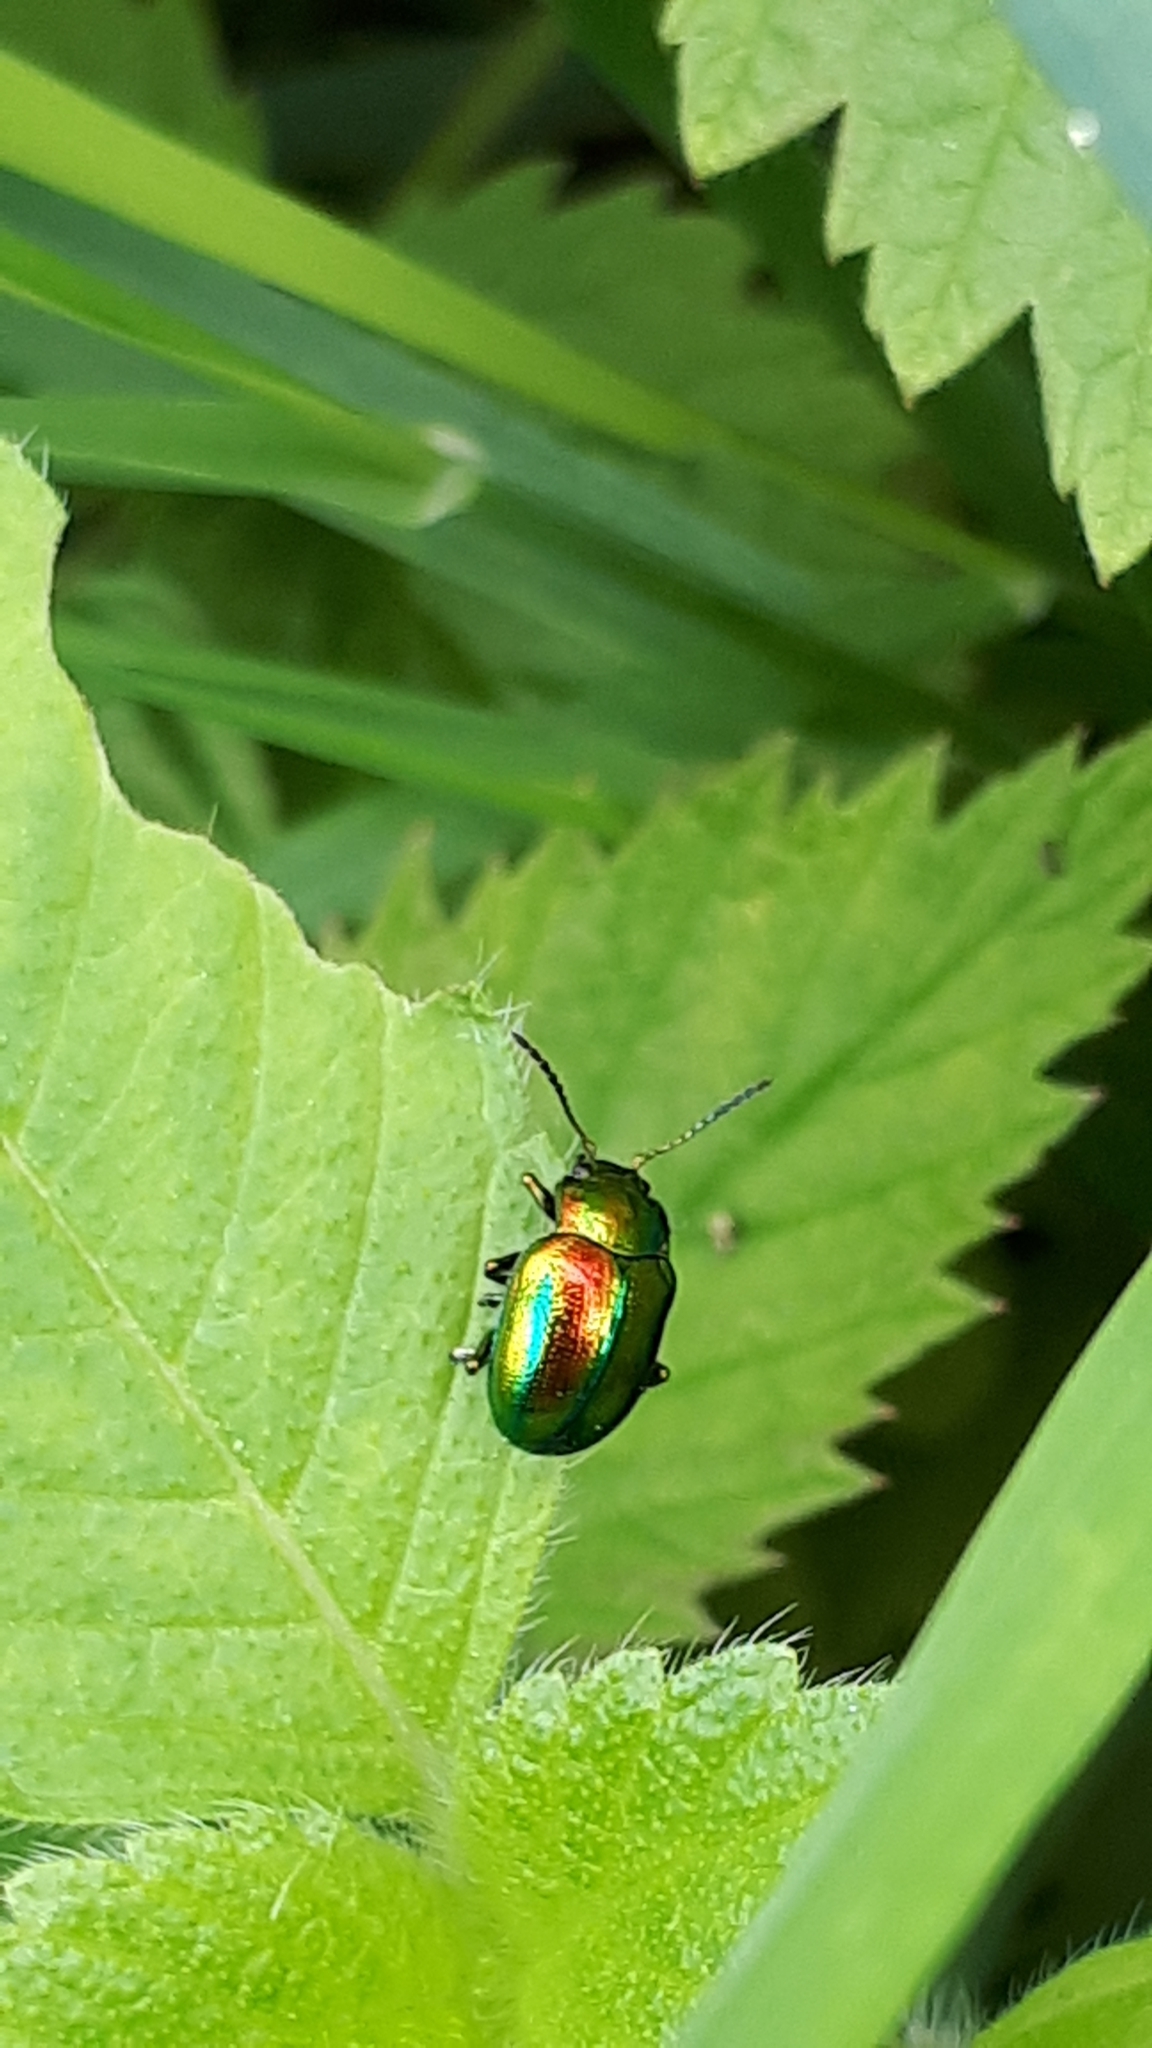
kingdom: Animalia
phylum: Arthropoda
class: Insecta
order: Coleoptera
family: Chrysomelidae
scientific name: Chrysomelidae
